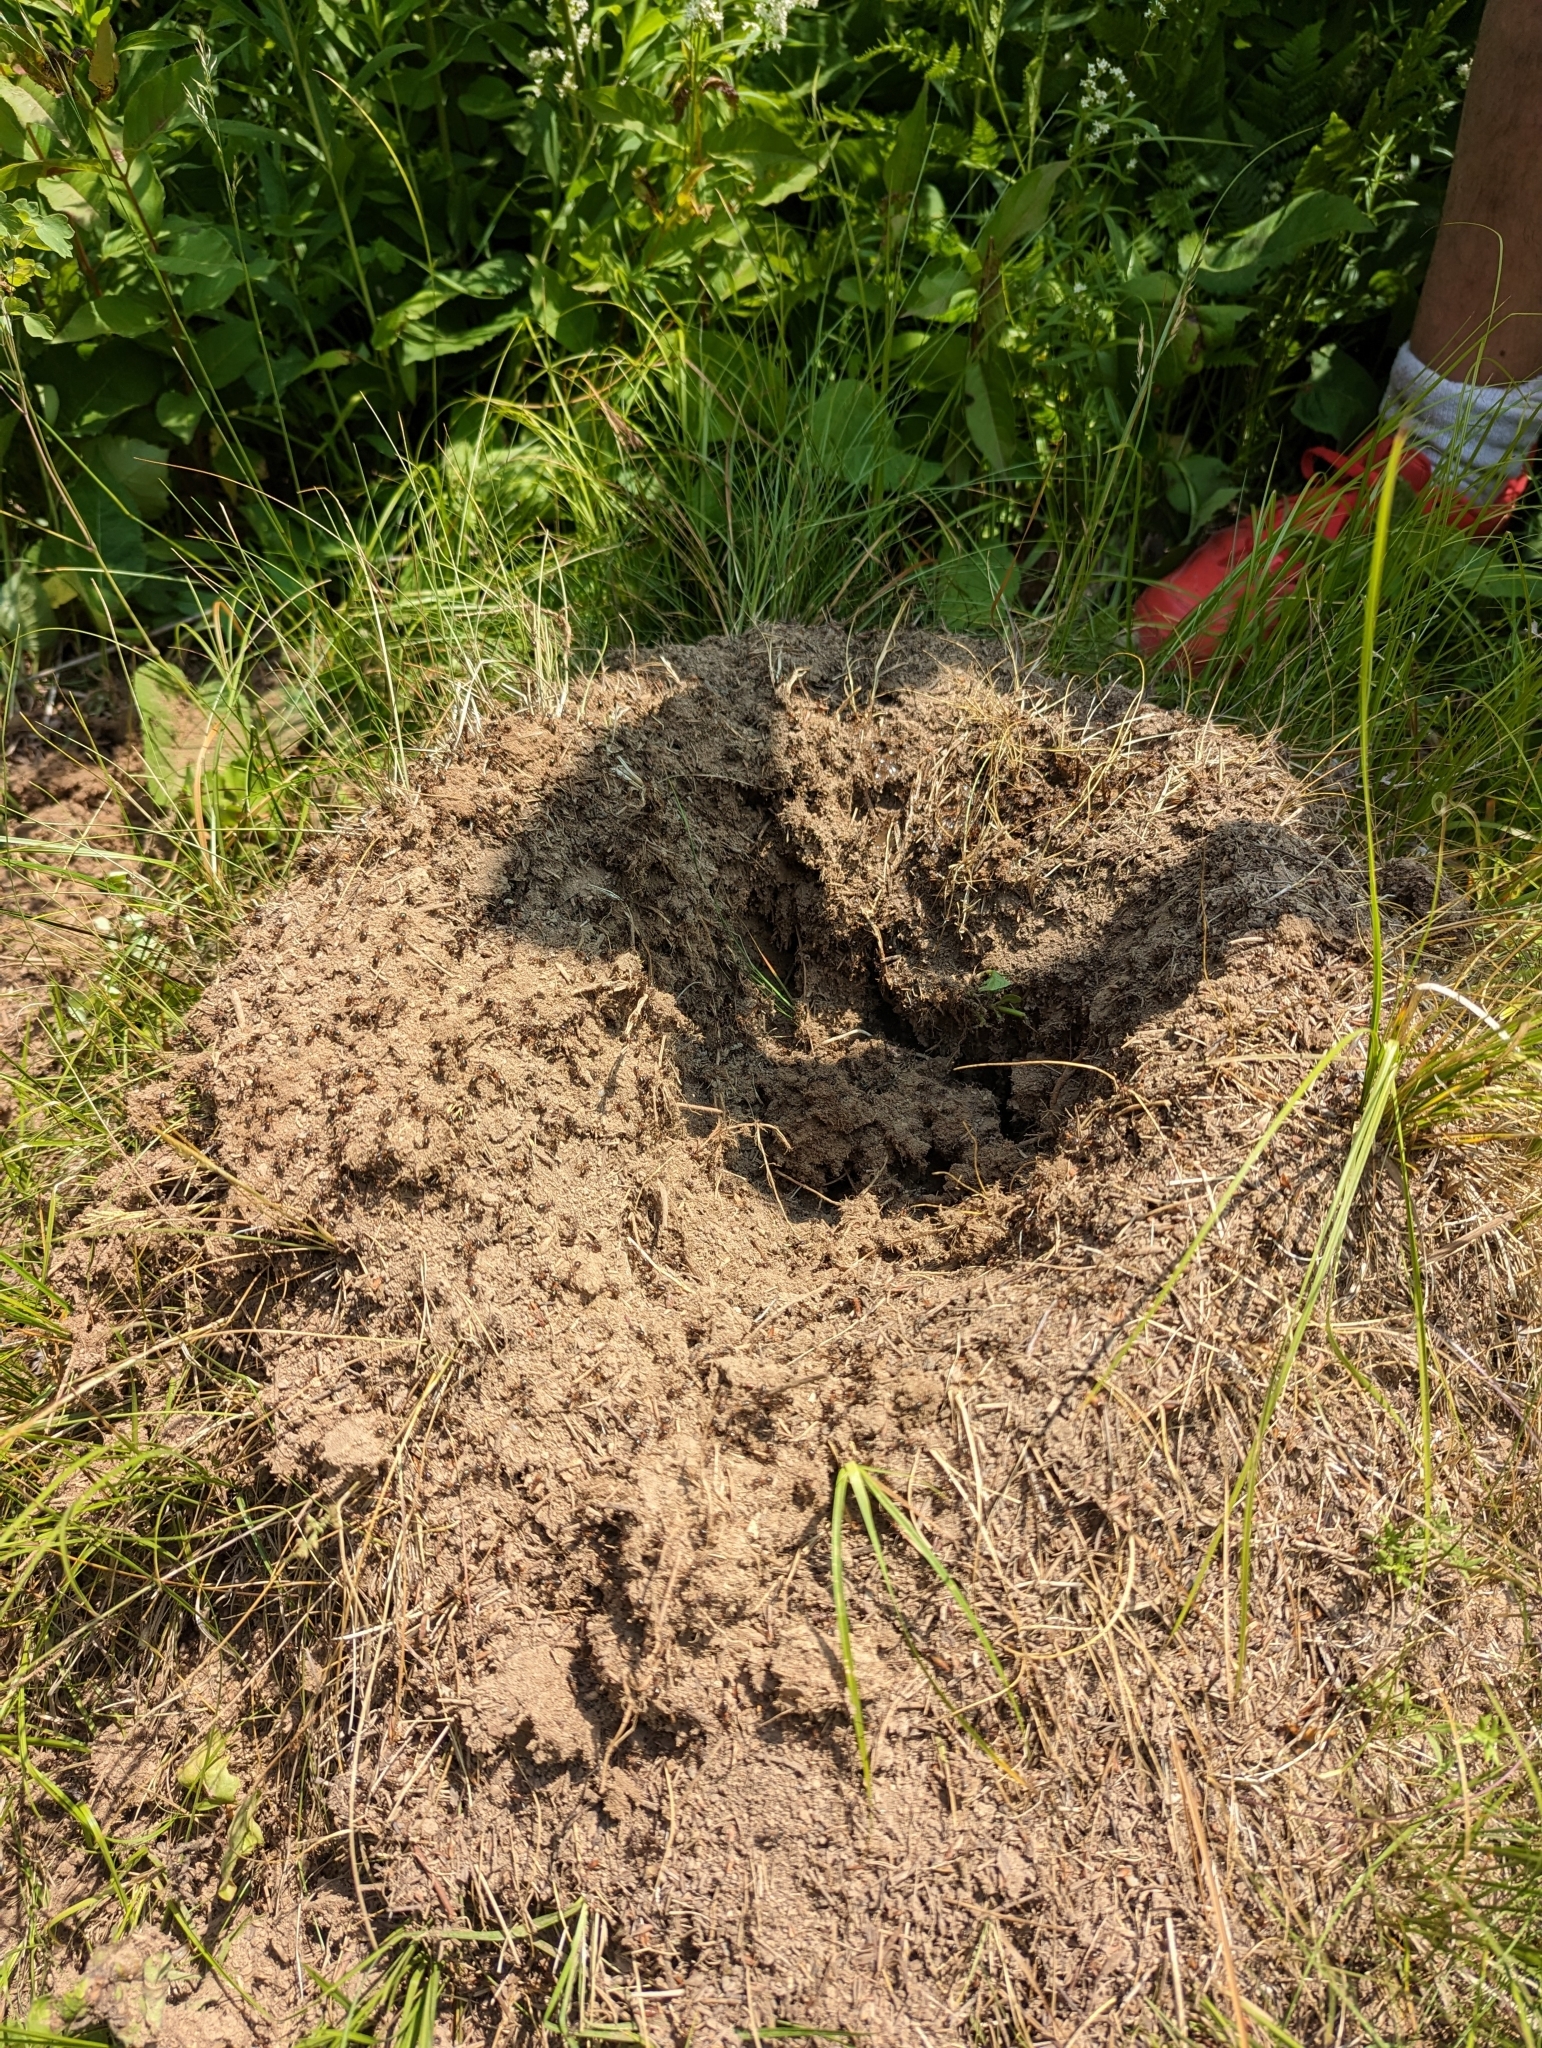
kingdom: Animalia
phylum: Arthropoda
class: Insecta
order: Hymenoptera
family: Formicidae
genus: Formica
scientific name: Formica ulkei
